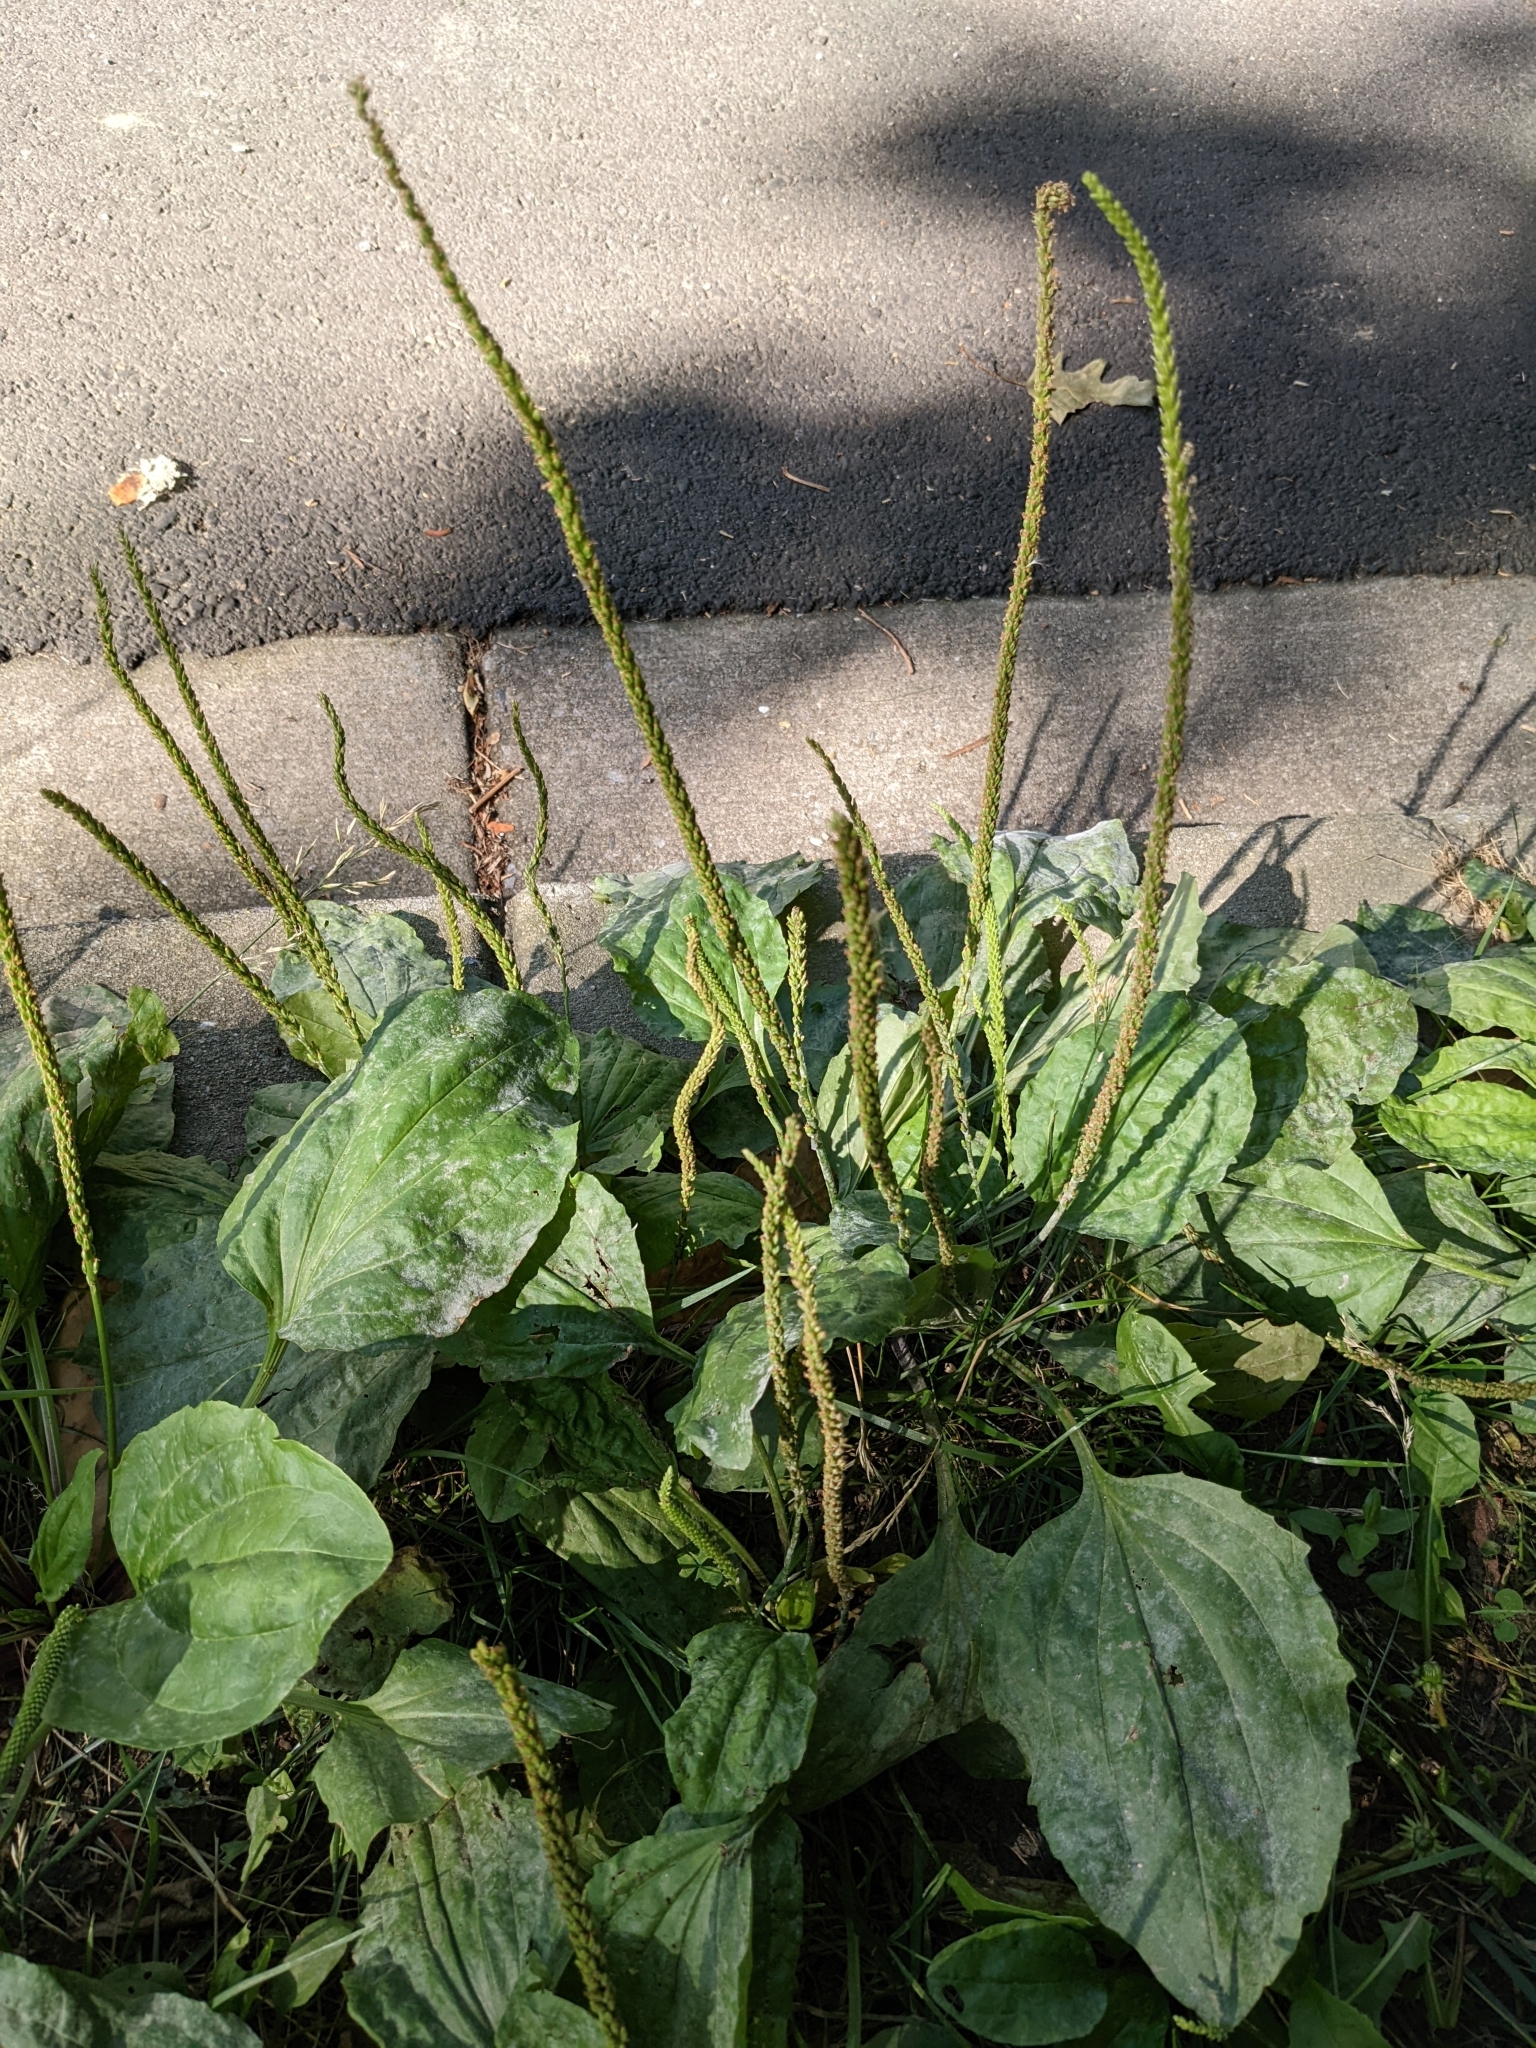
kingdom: Plantae
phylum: Tracheophyta
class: Magnoliopsida
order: Lamiales
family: Plantaginaceae
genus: Plantago
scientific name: Plantago major
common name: Common plantain
